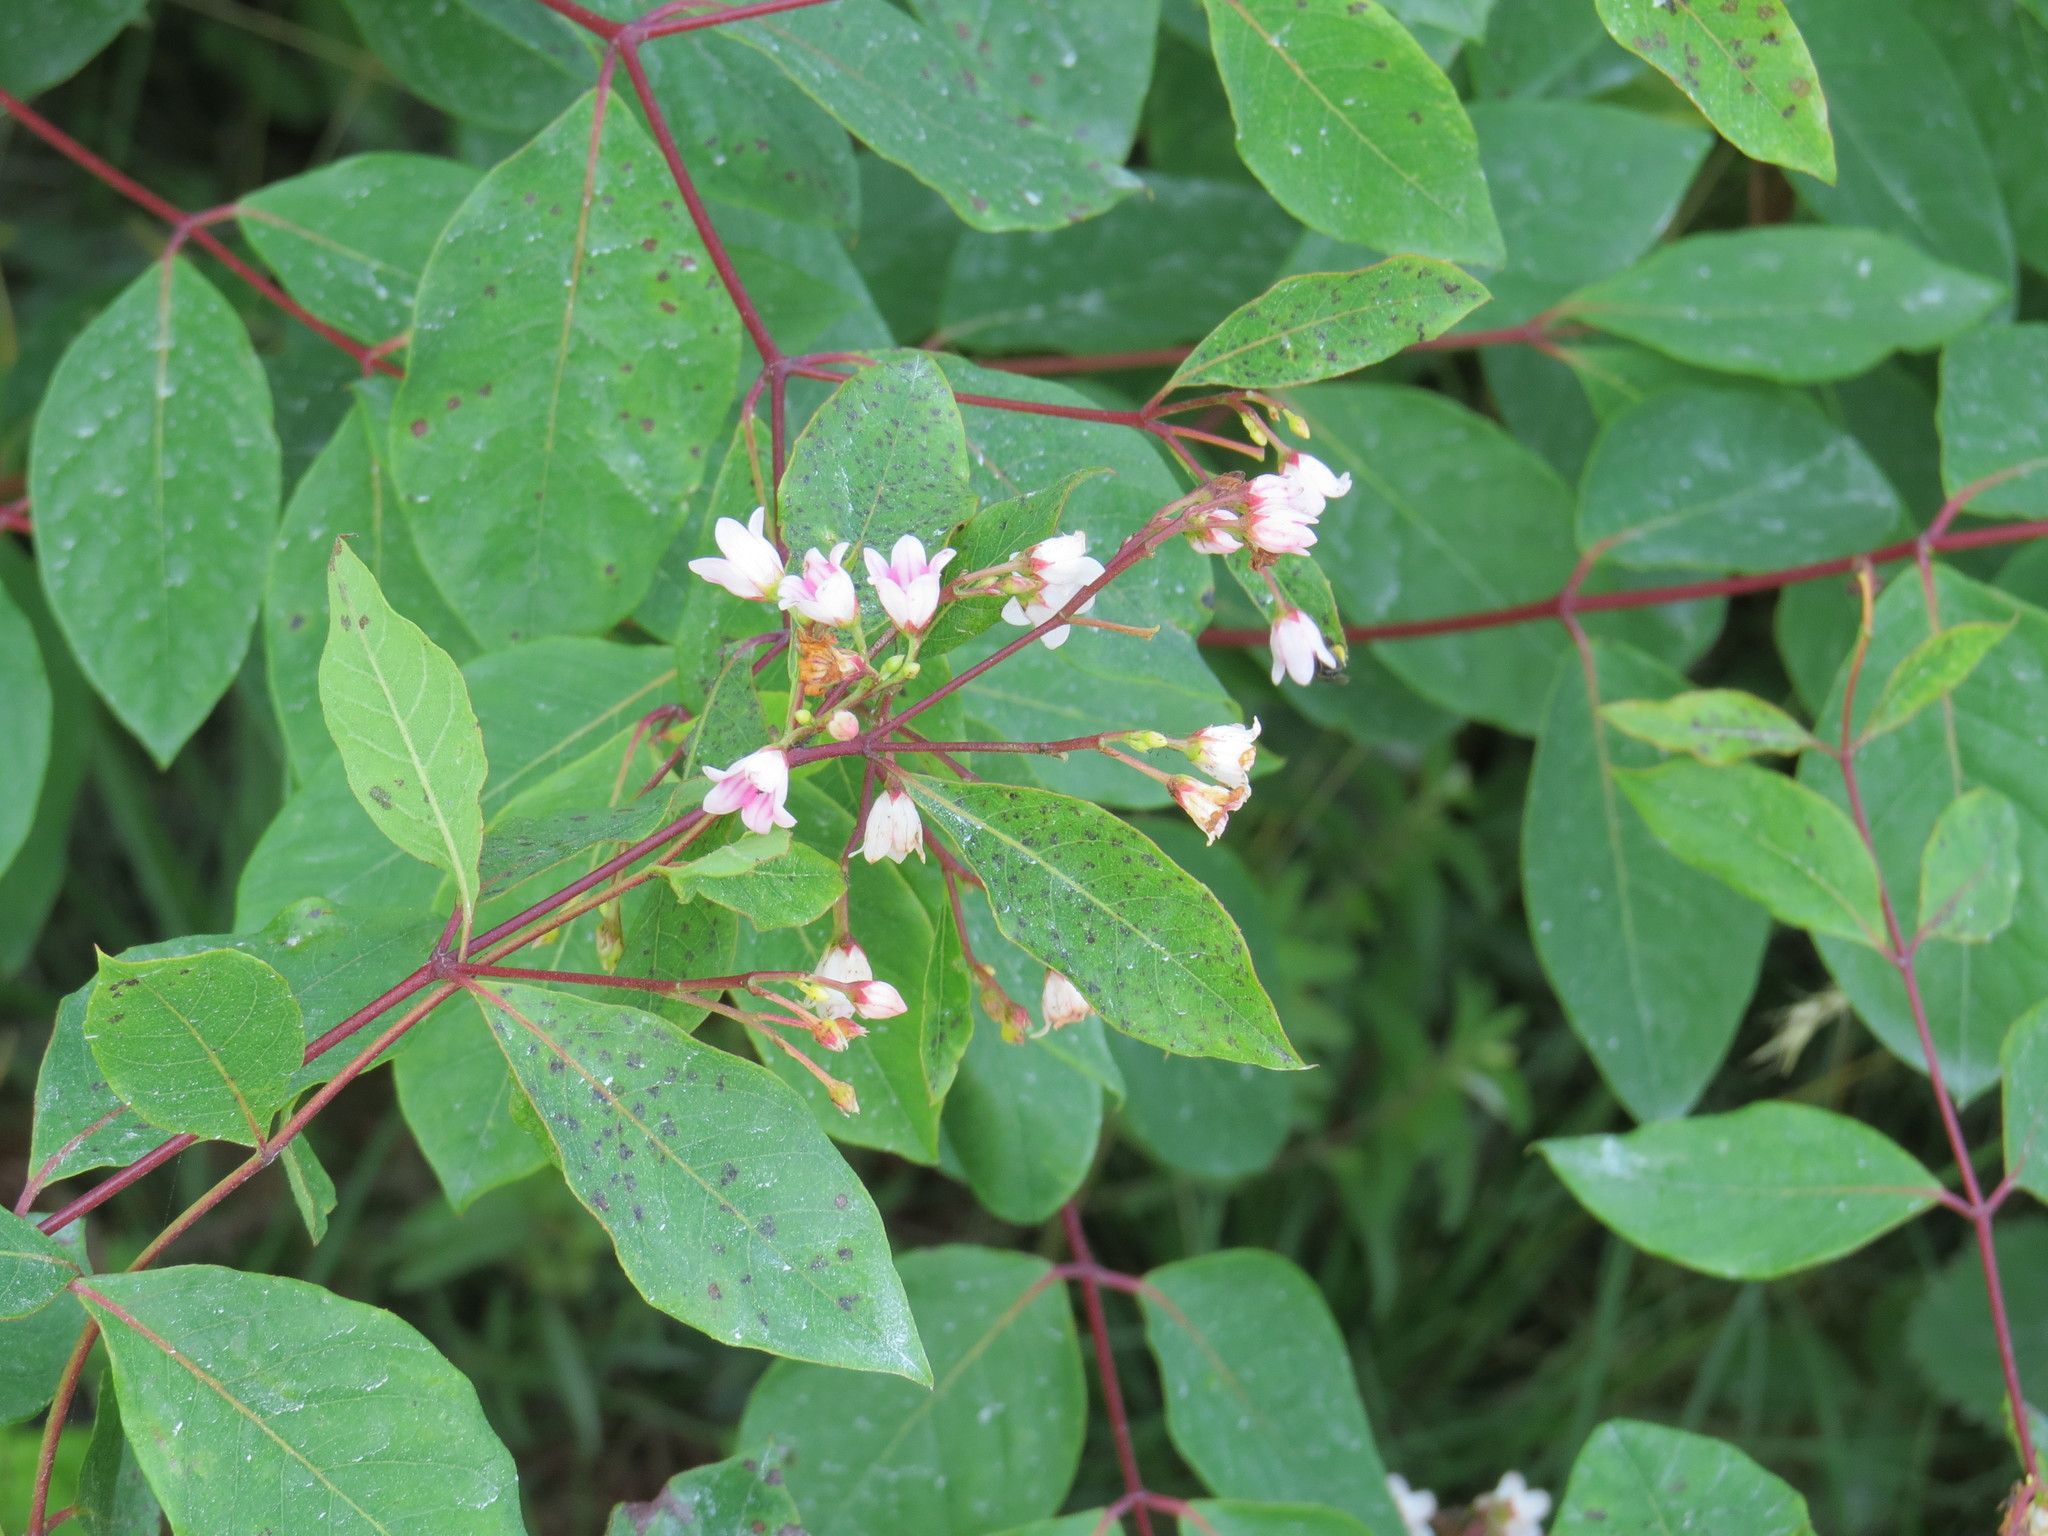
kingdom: Plantae
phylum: Tracheophyta
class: Magnoliopsida
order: Gentianales
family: Apocynaceae
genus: Apocynum
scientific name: Apocynum androsaemifolium
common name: Spreading dogbane
